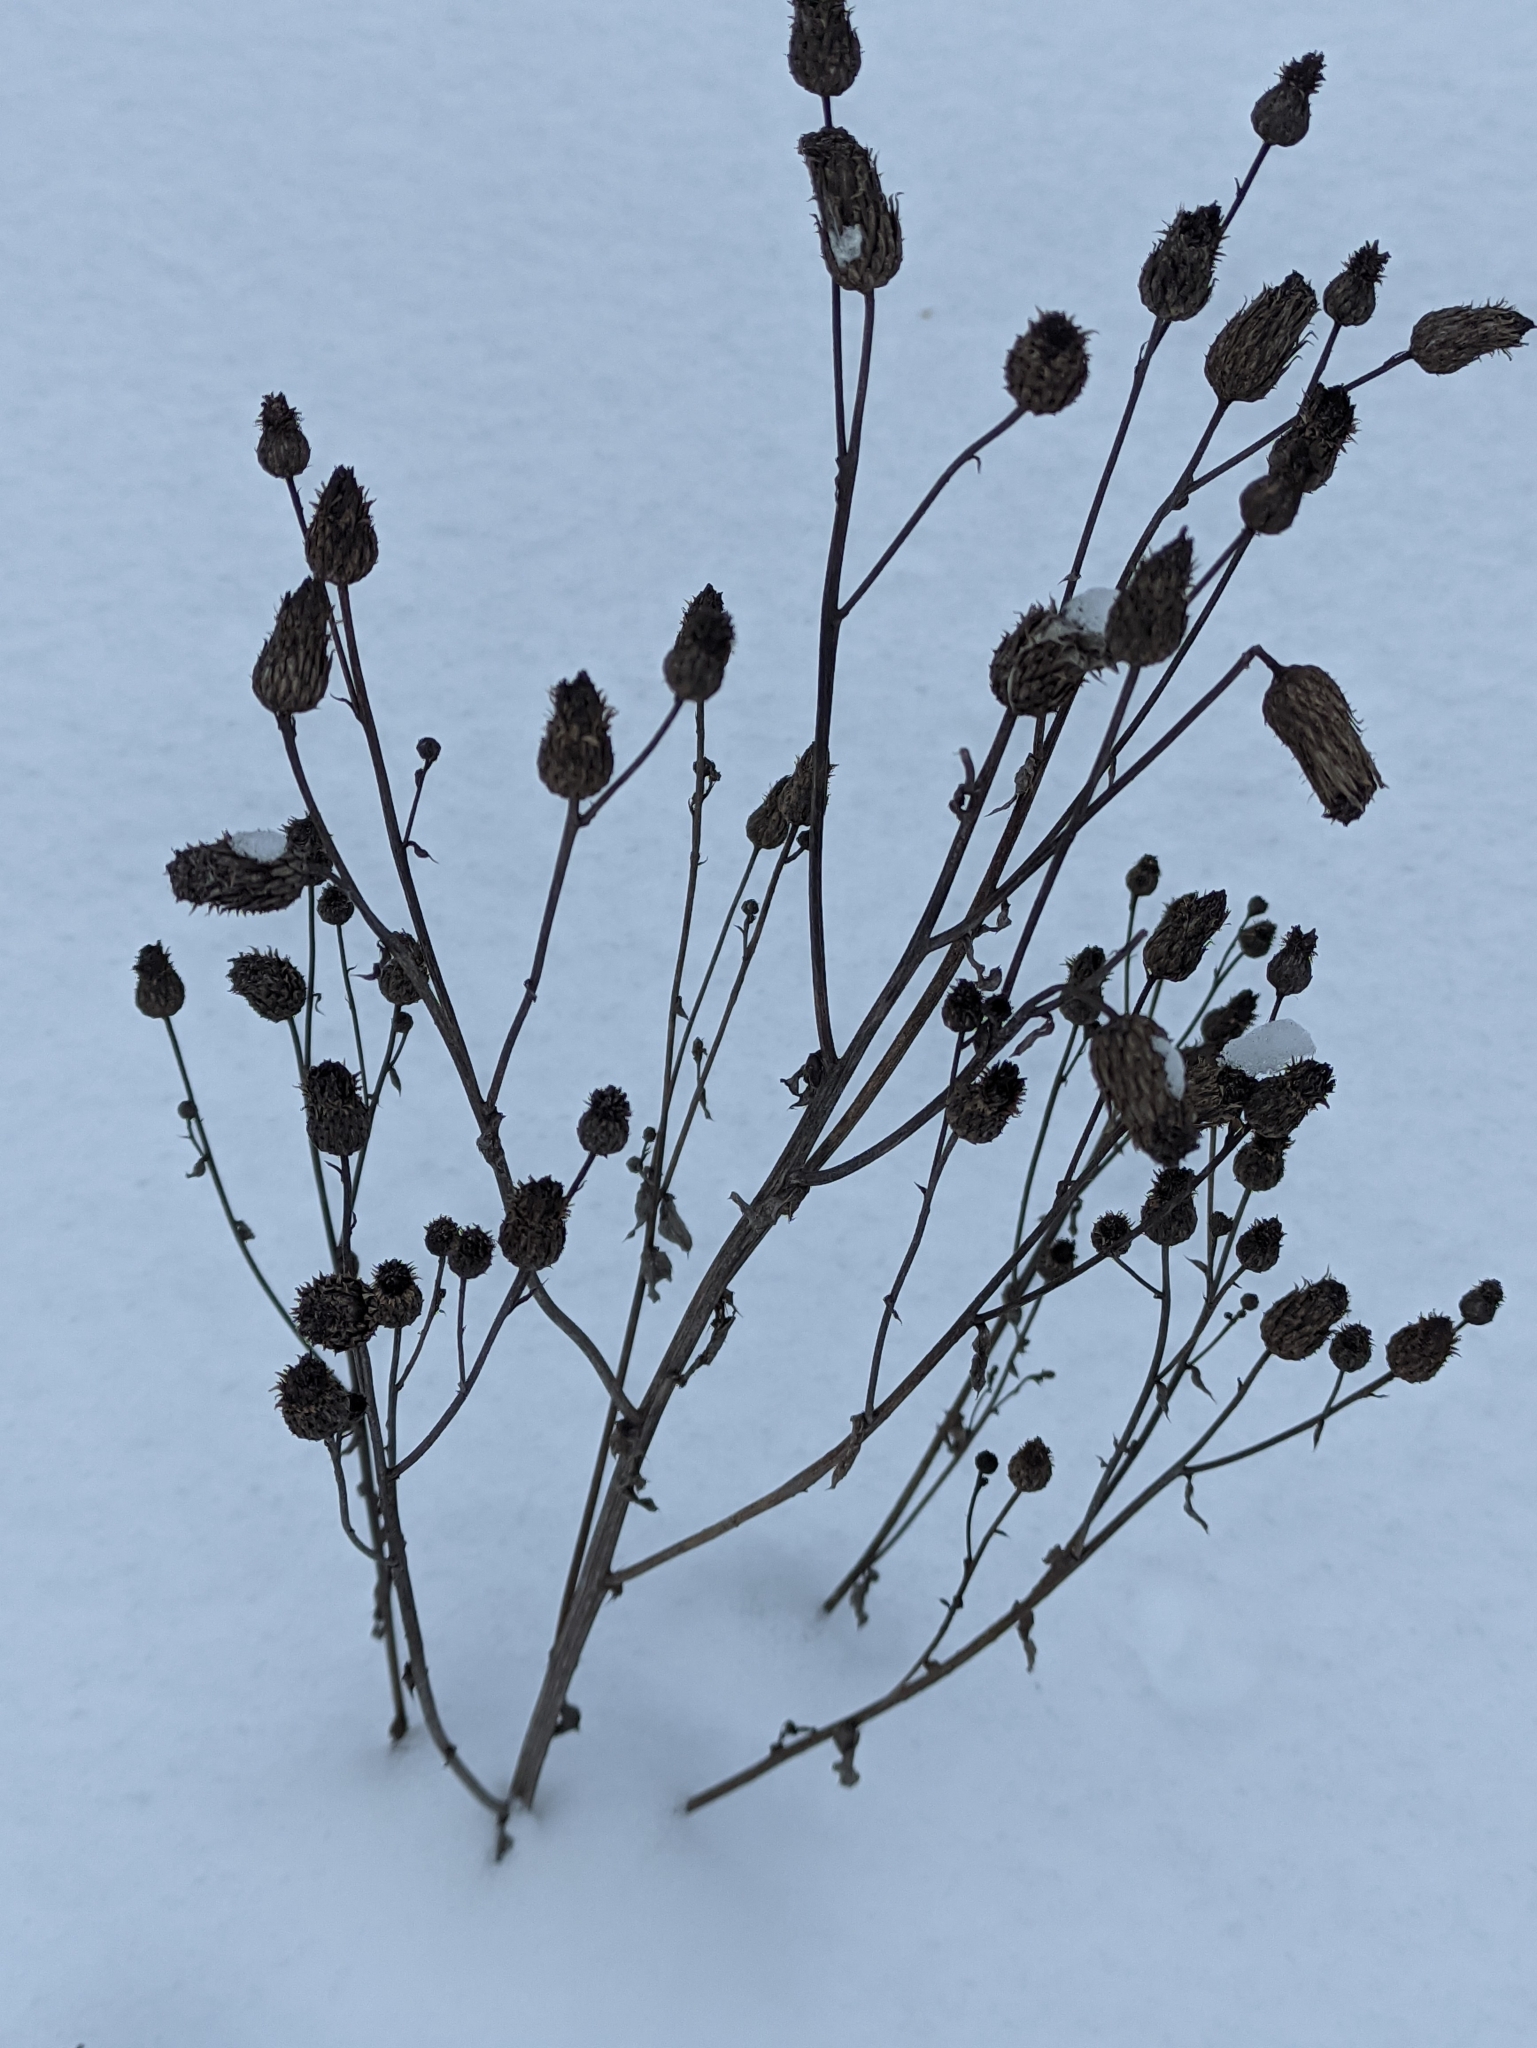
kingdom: Plantae
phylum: Tracheophyta
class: Magnoliopsida
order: Asterales
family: Asteraceae
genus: Cirsium
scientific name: Cirsium arvense
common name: Creeping thistle
